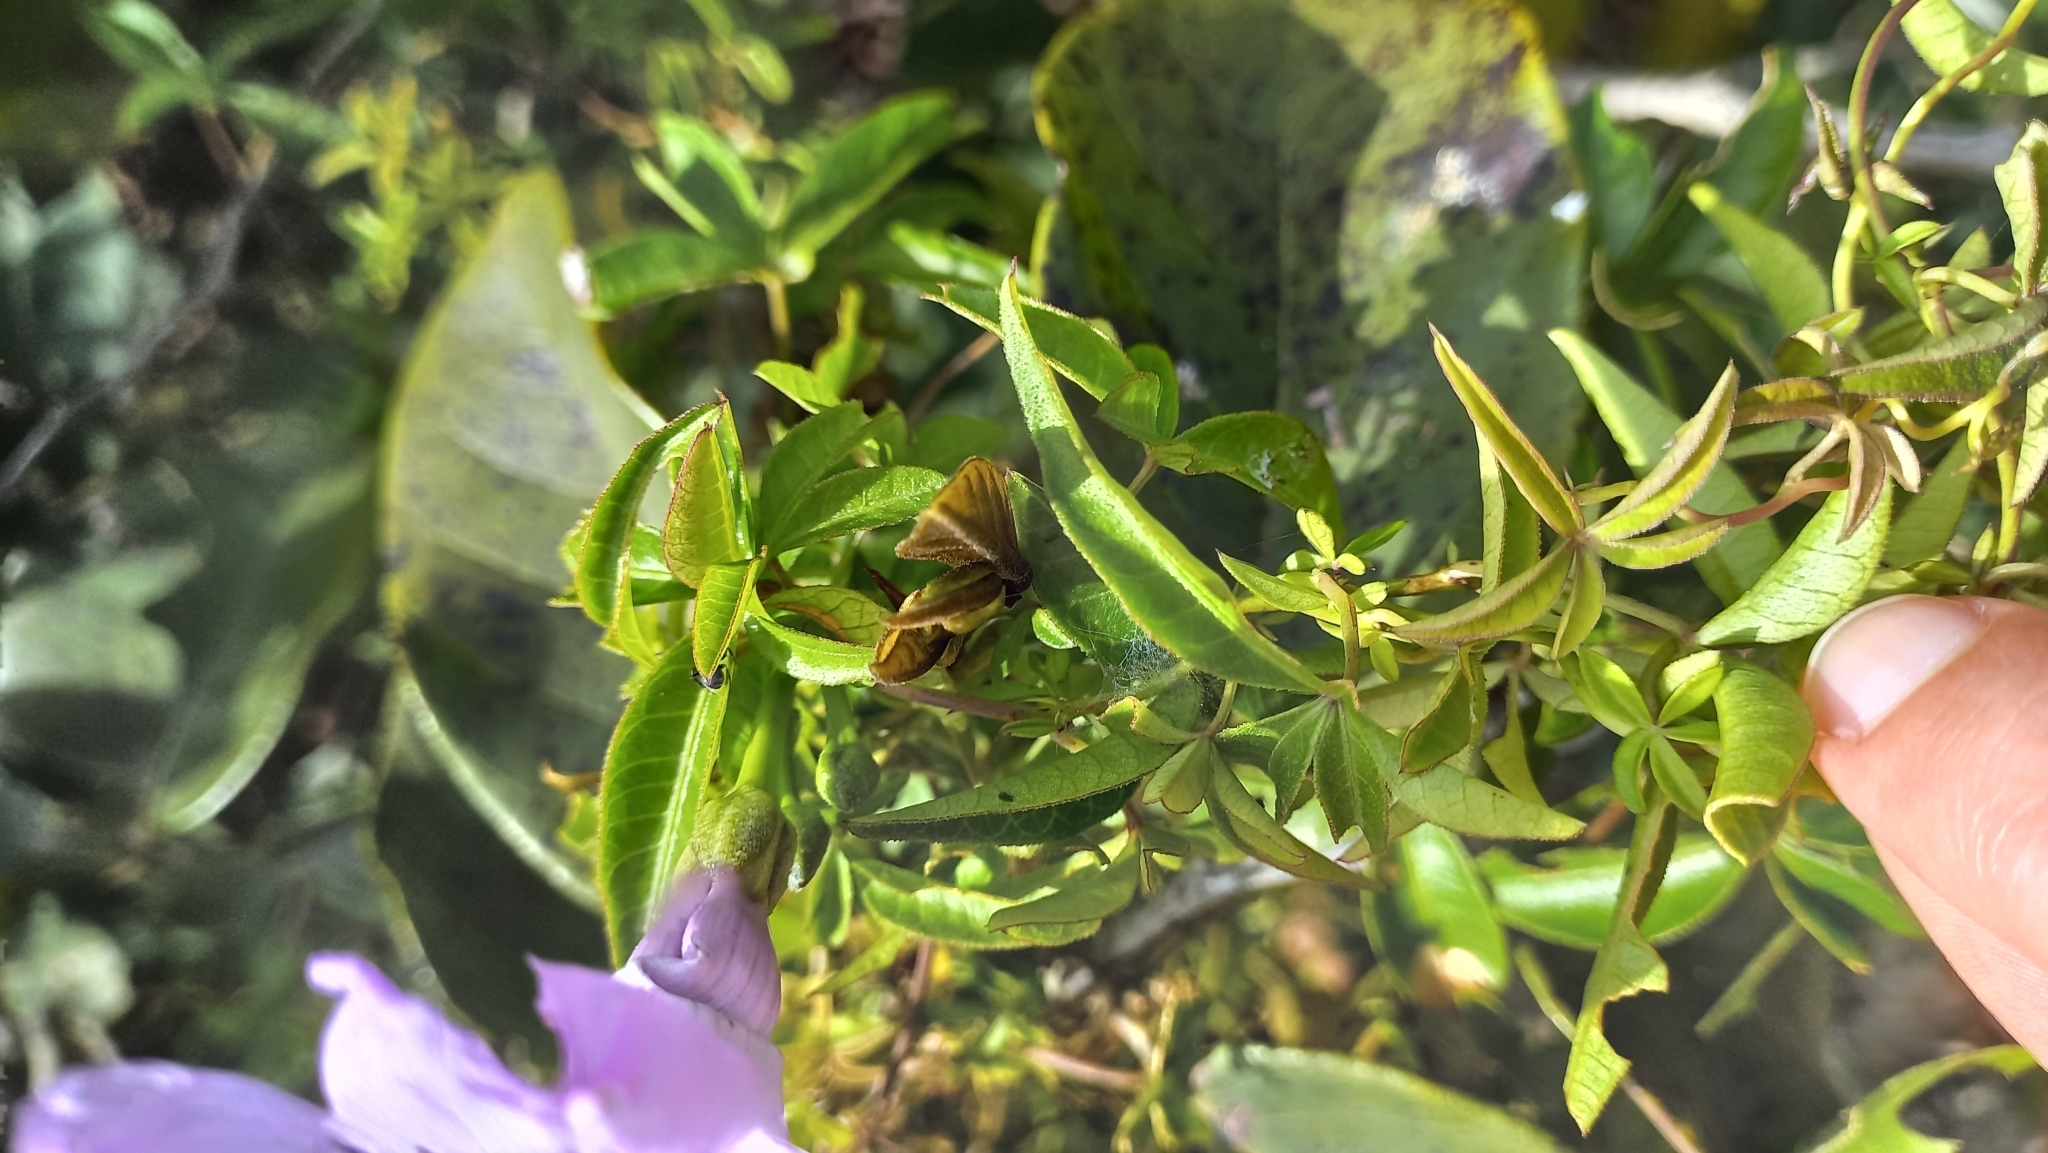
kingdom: Plantae
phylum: Tracheophyta
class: Magnoliopsida
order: Solanales
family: Convolvulaceae
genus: Ipomoea
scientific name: Ipomoea cairica
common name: Mile a minute vine
